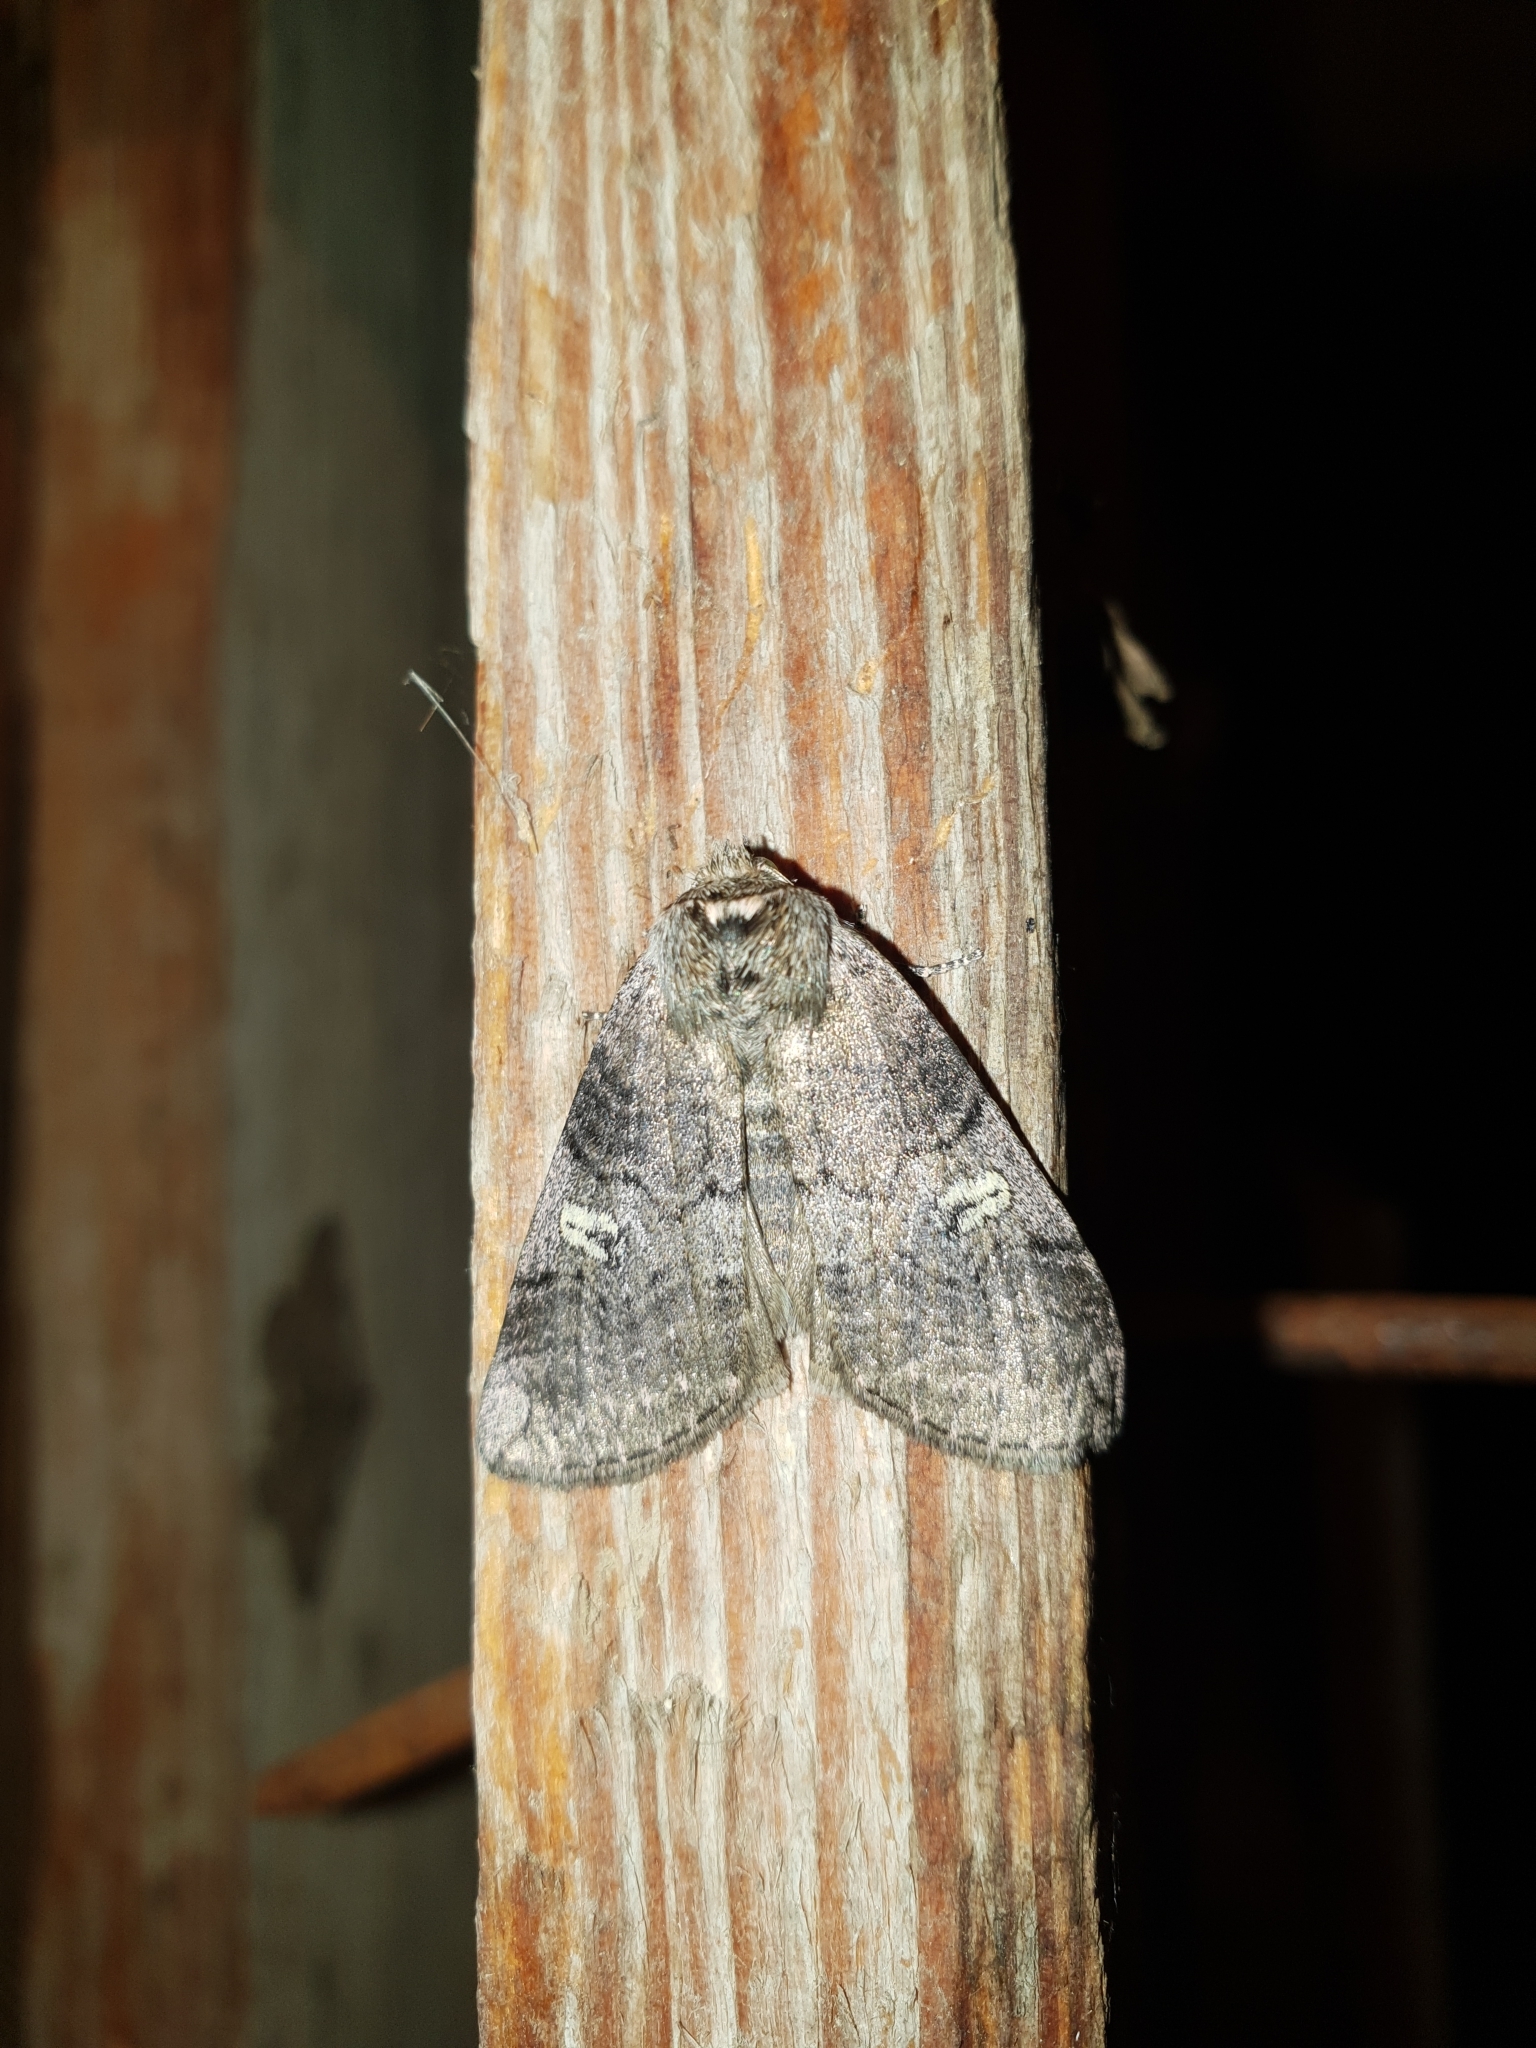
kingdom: Animalia
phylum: Arthropoda
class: Insecta
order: Lepidoptera
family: Drepanidae
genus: Tethea
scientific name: Tethea or
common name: Poplar lutestring
